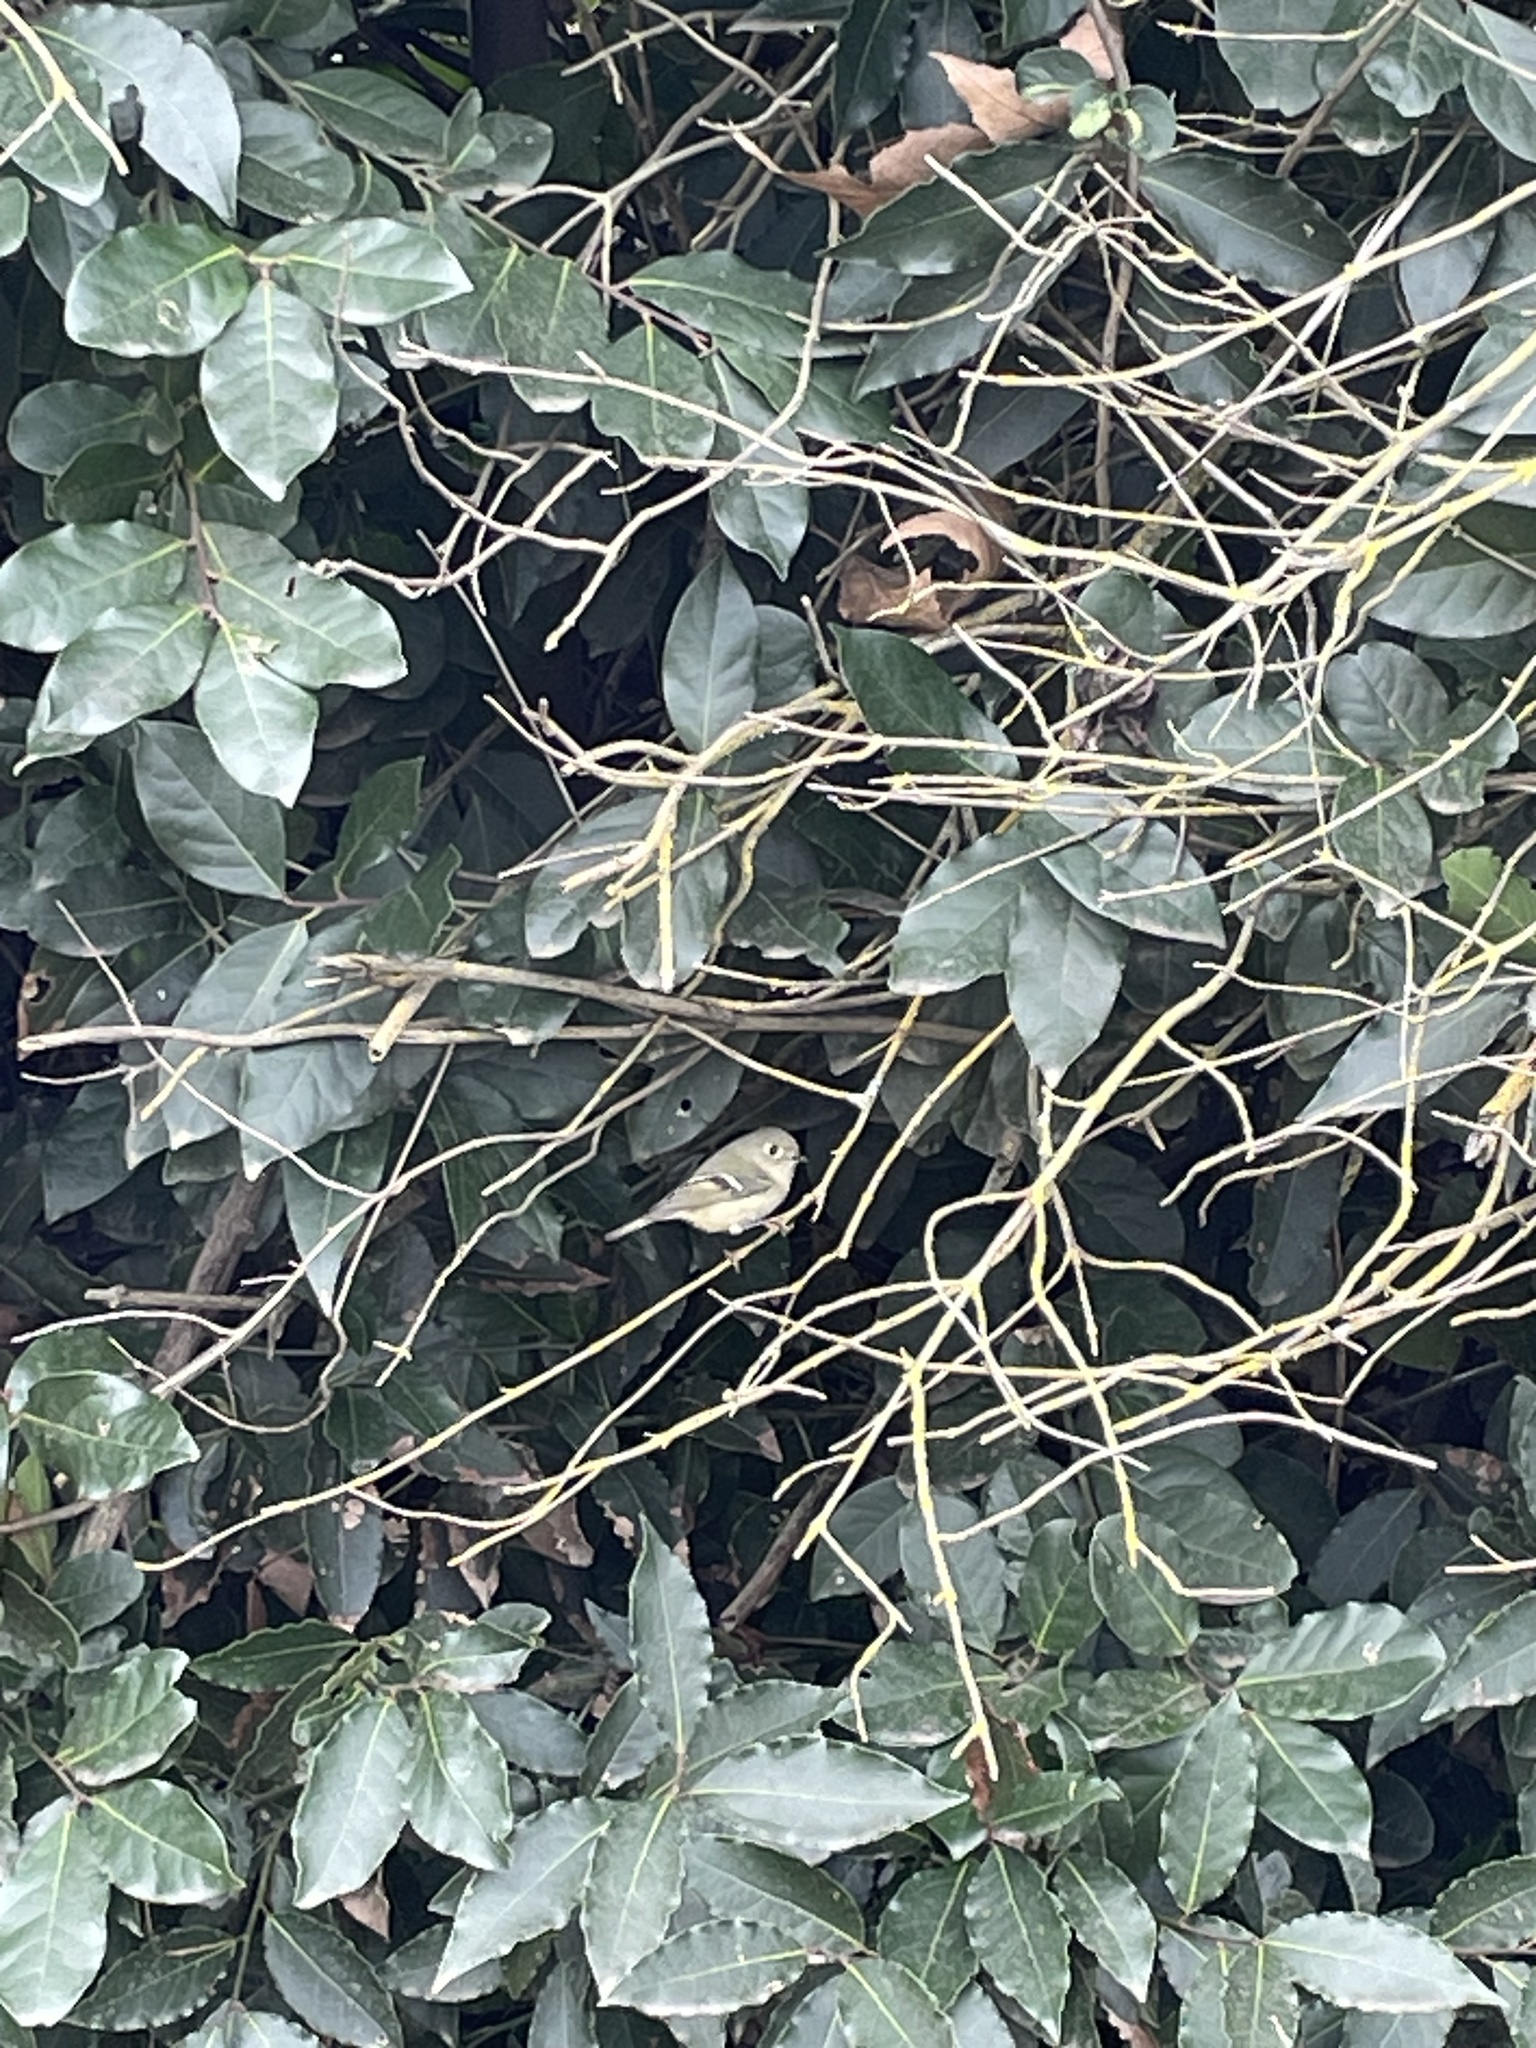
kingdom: Animalia
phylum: Chordata
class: Aves
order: Passeriformes
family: Regulidae
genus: Regulus
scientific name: Regulus calendula
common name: Ruby-crowned kinglet
